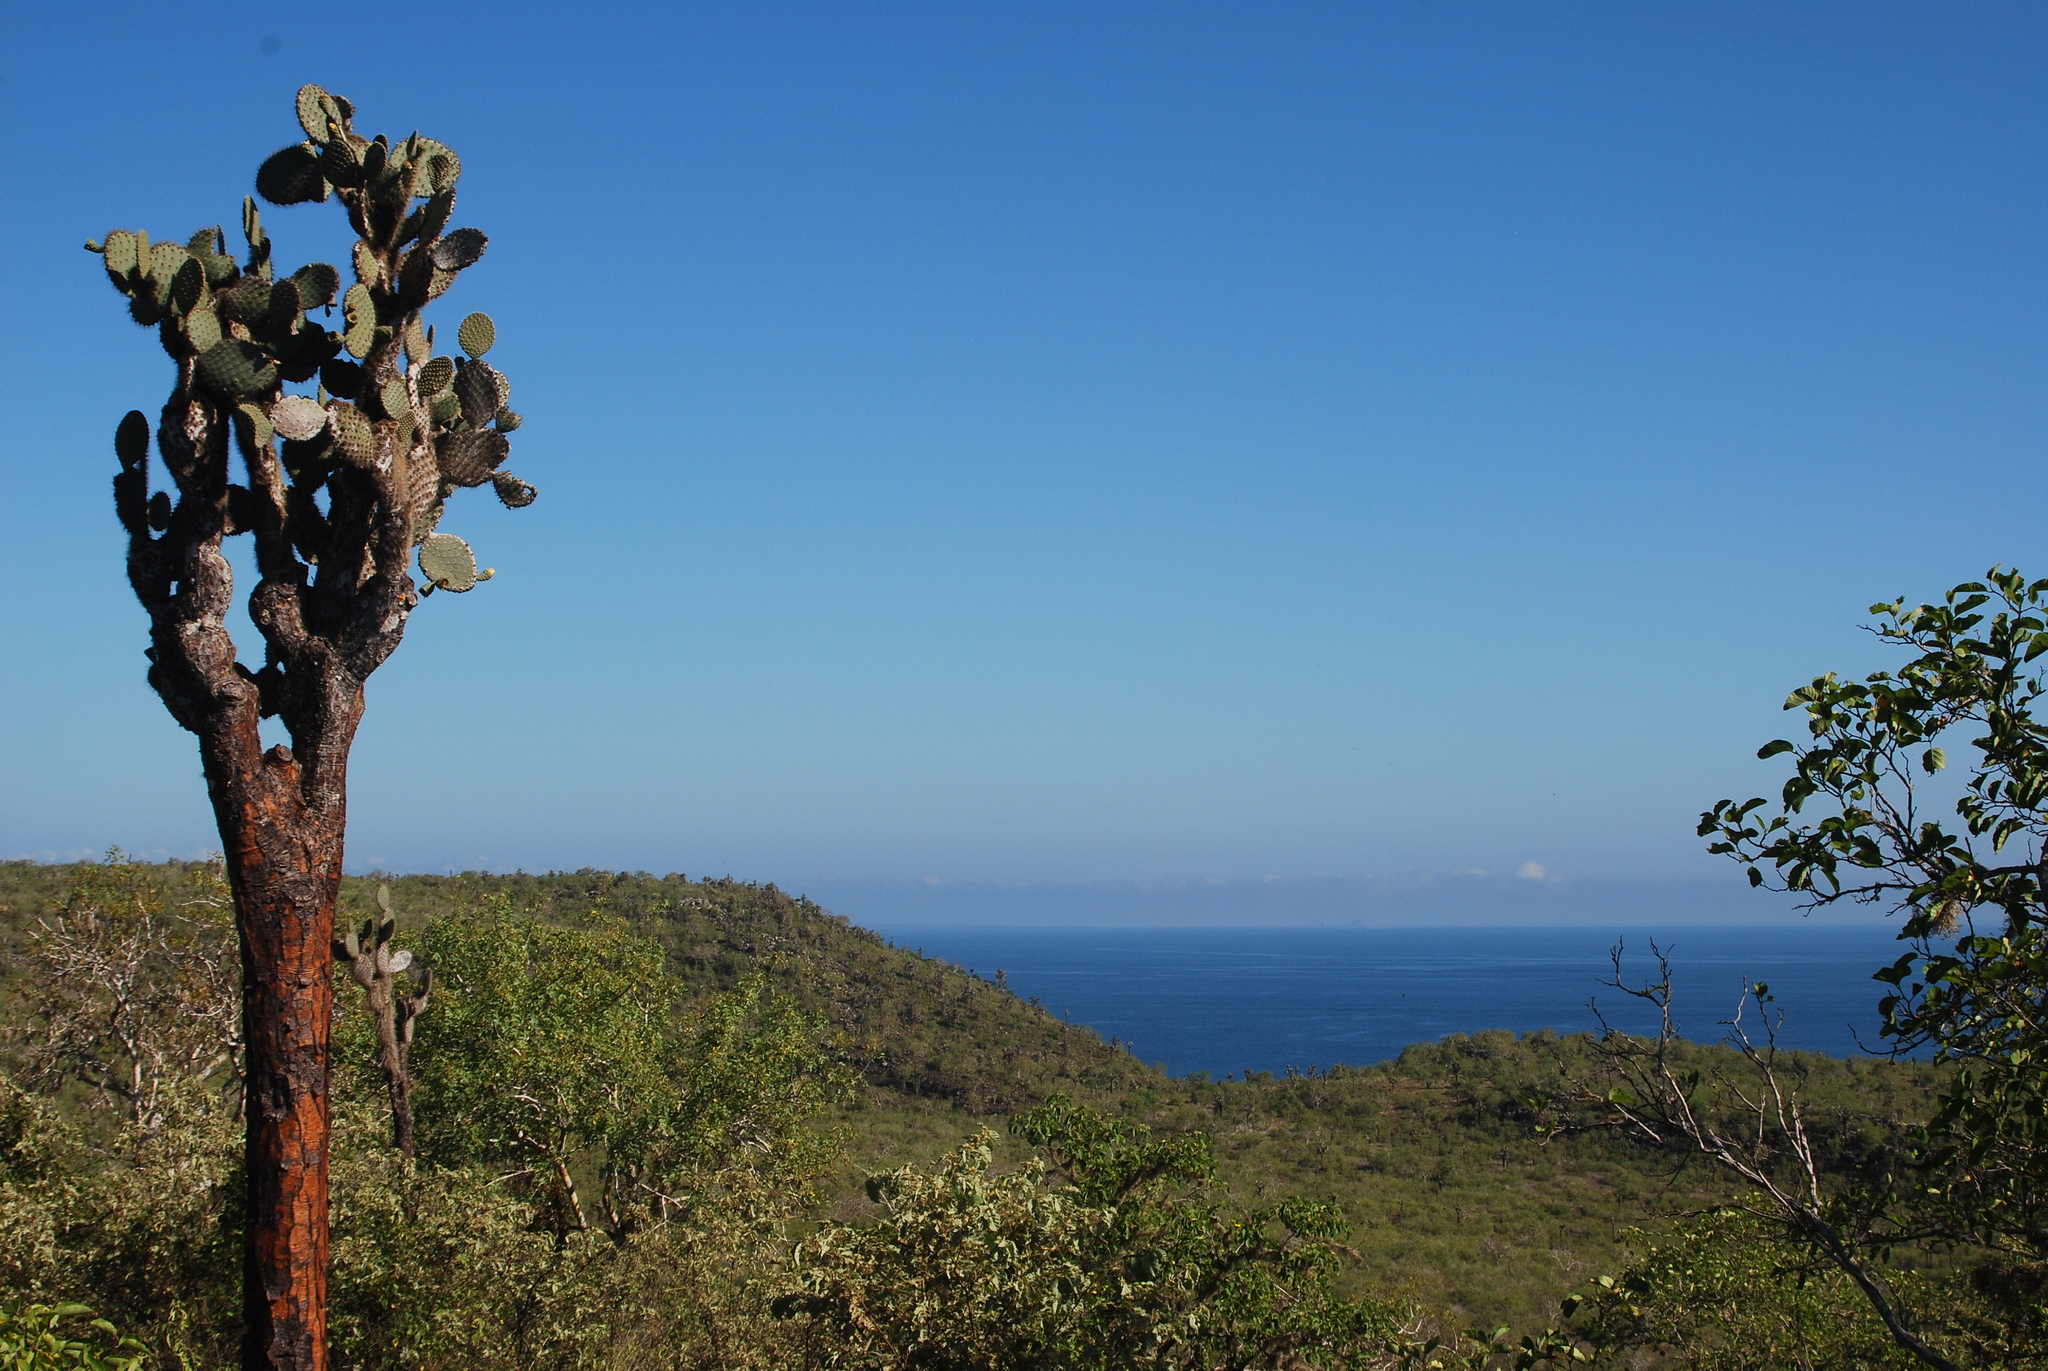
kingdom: Plantae
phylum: Tracheophyta
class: Magnoliopsida
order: Caryophyllales
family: Cactaceae
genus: Opuntia
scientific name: Opuntia galapageia
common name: Galápagos prickly pear
